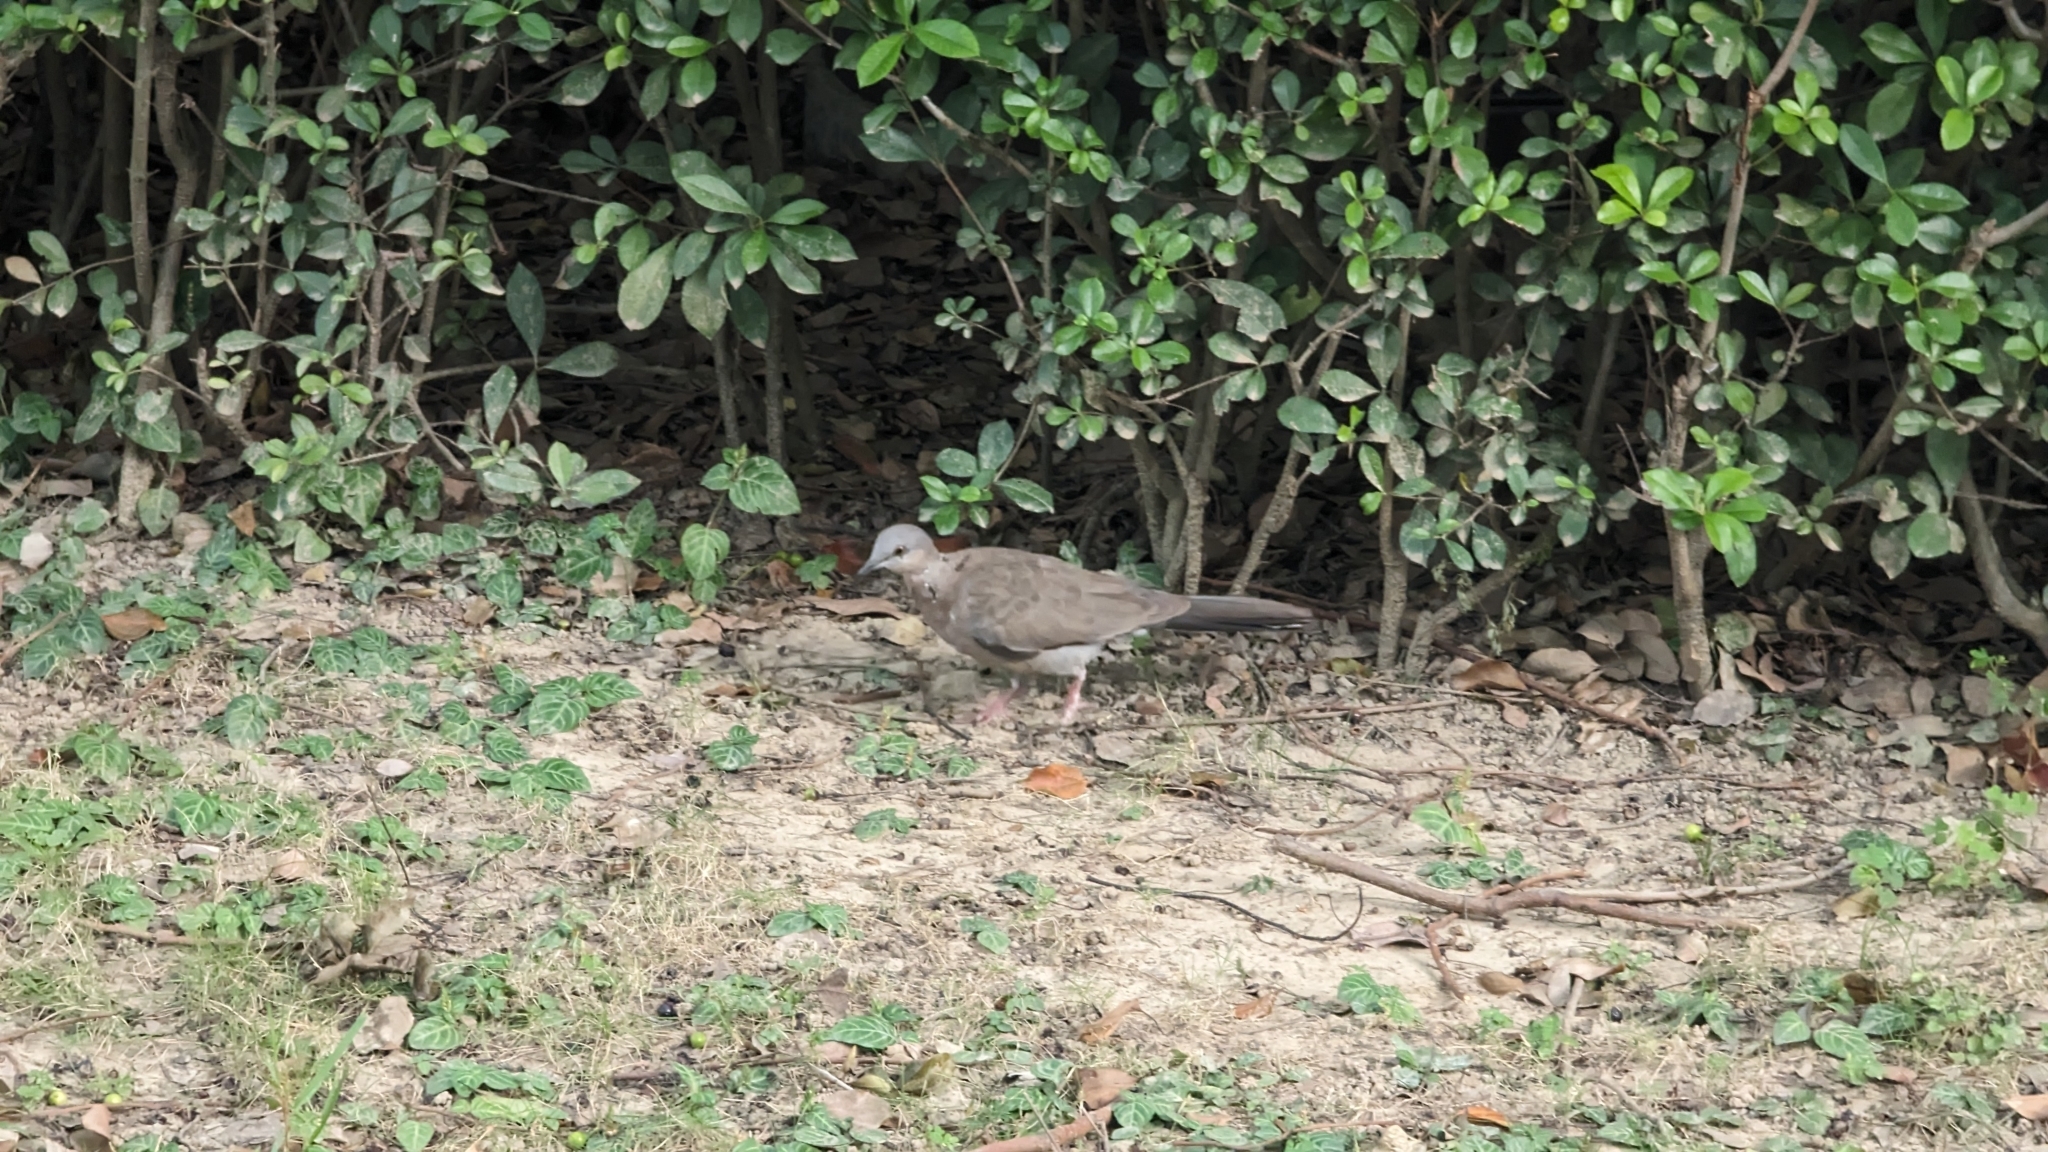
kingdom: Animalia
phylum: Chordata
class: Aves
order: Columbiformes
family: Columbidae
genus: Spilopelia
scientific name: Spilopelia chinensis
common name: Spotted dove
